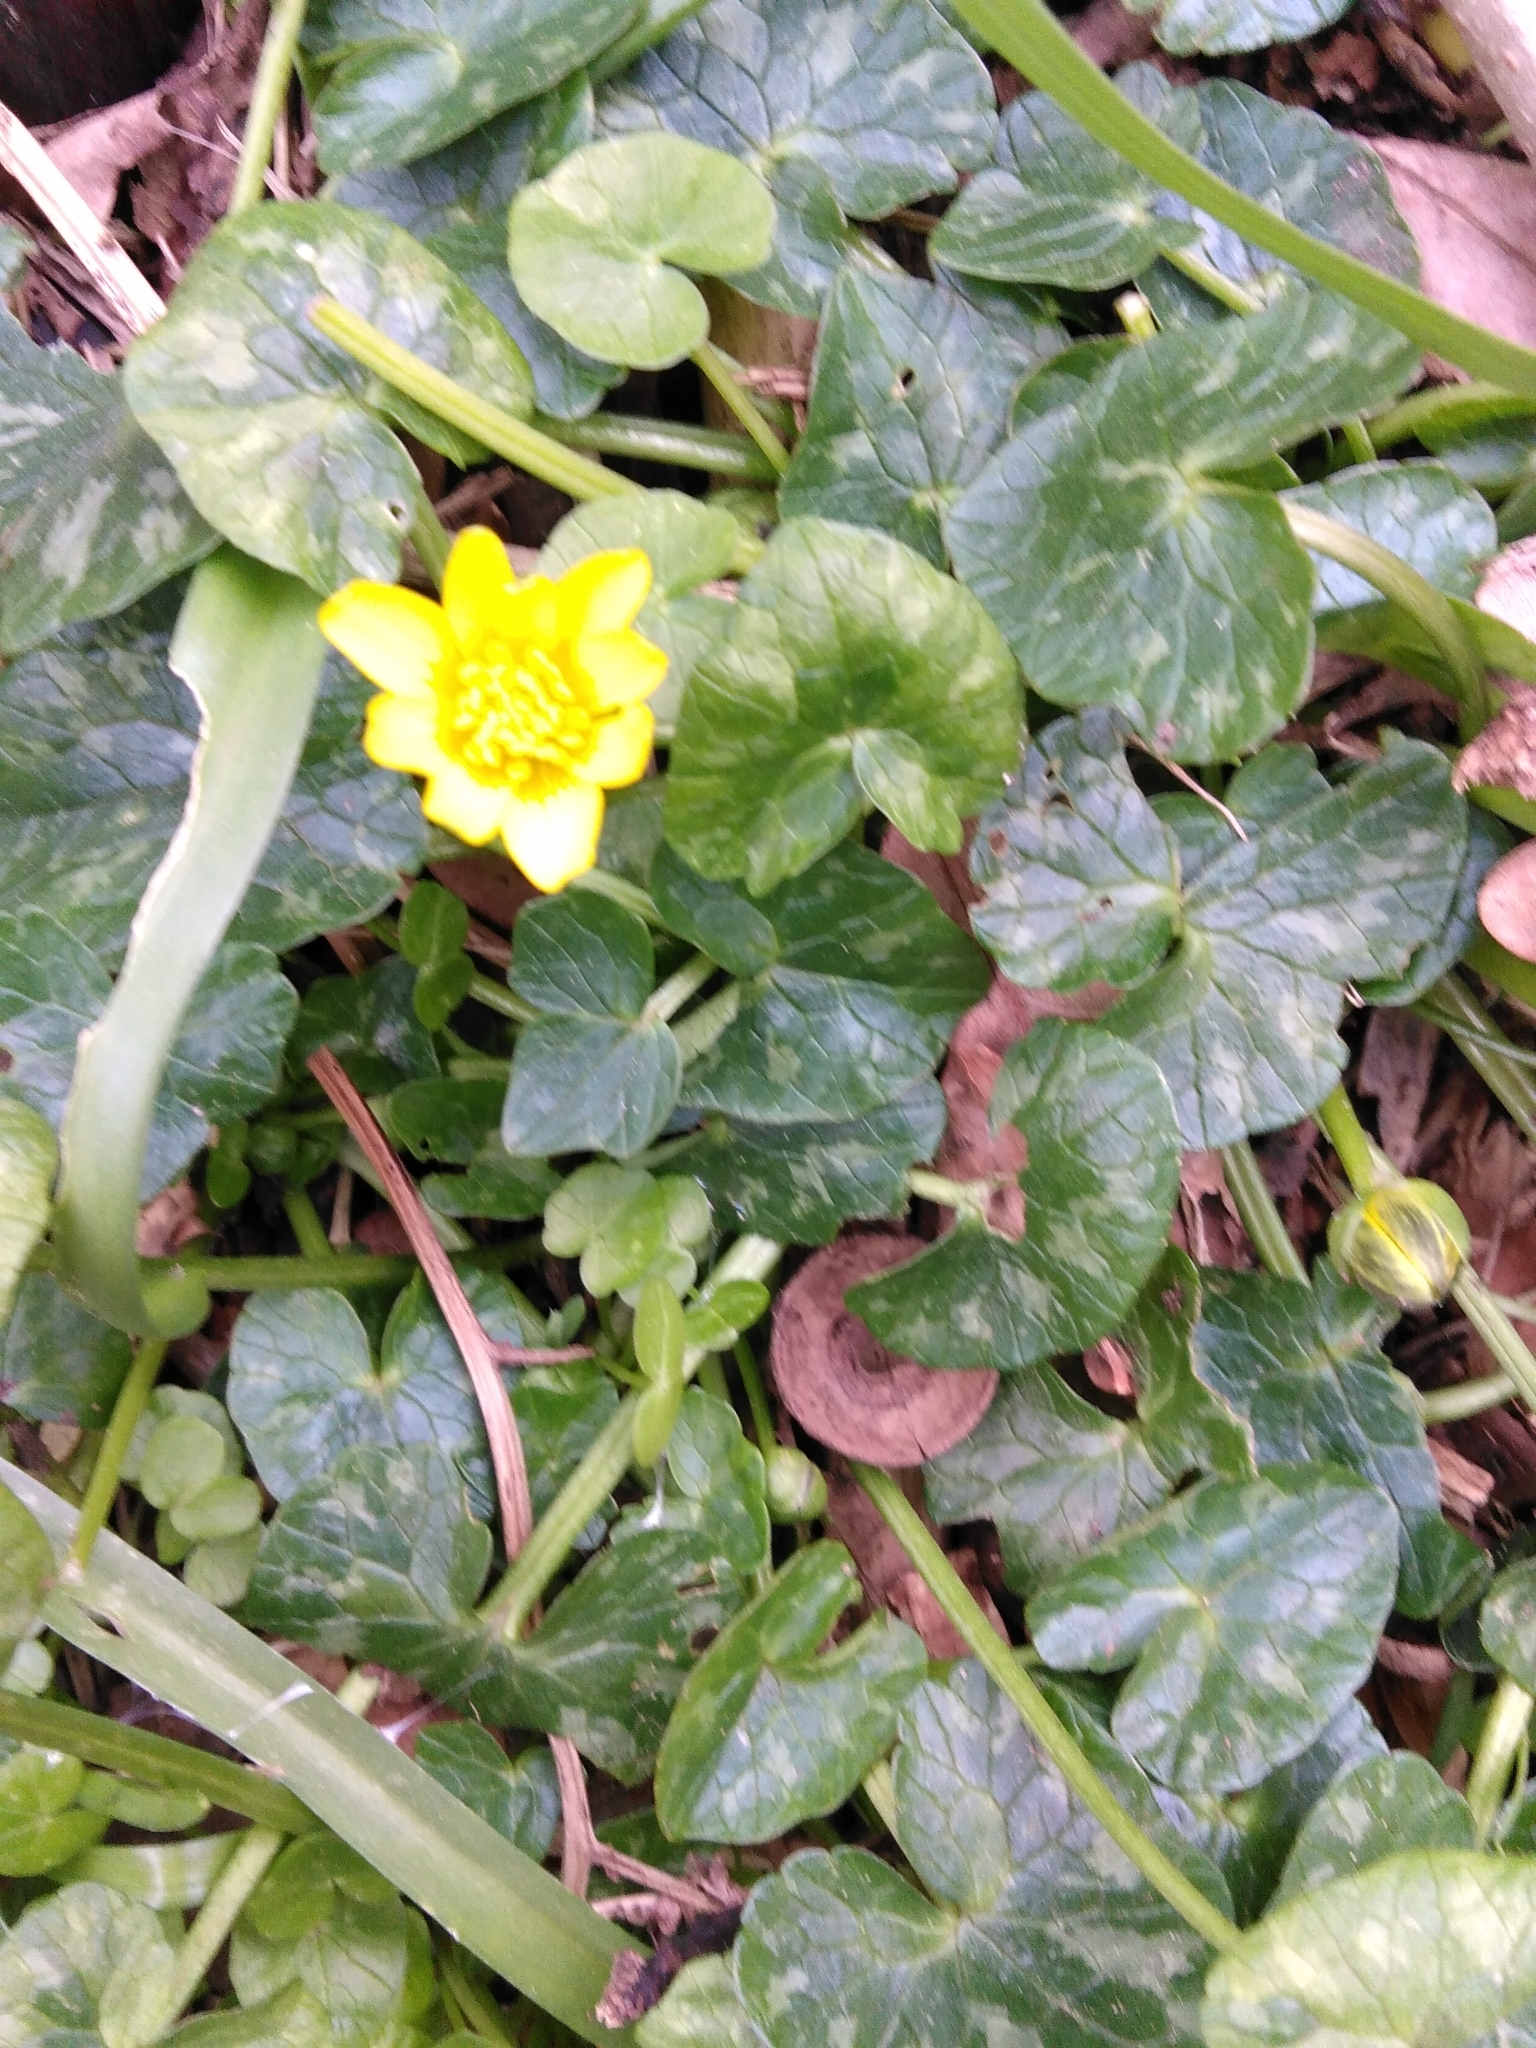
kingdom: Plantae
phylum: Tracheophyta
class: Magnoliopsida
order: Ranunculales
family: Ranunculaceae
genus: Ficaria
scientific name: Ficaria verna
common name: Lesser celandine
